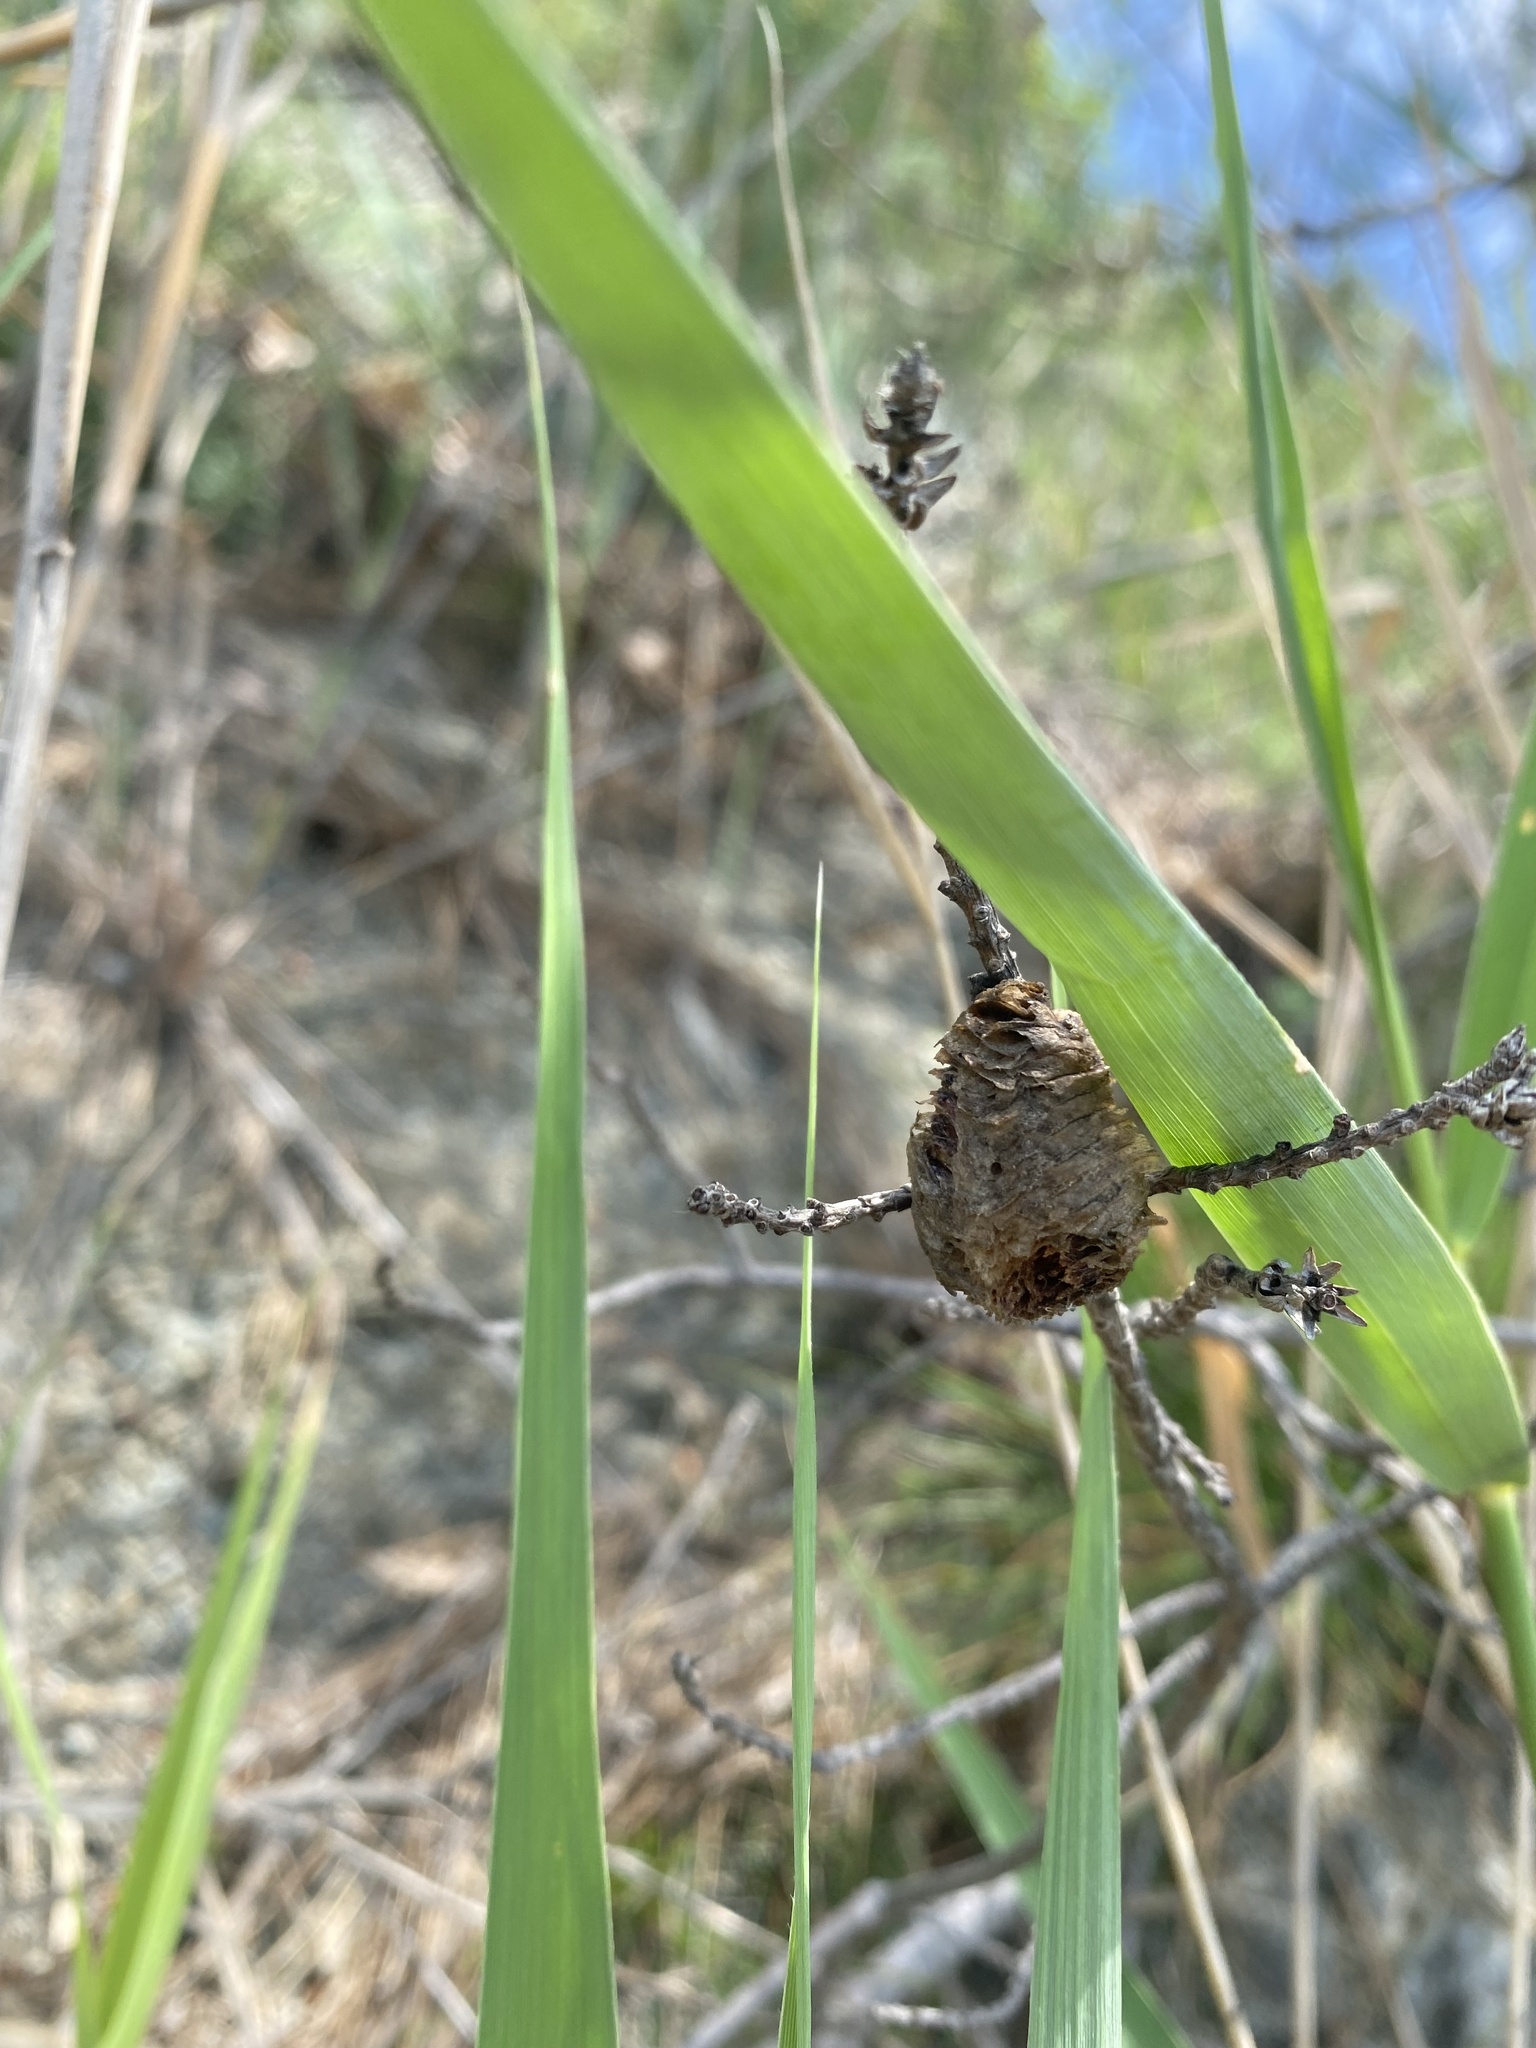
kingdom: Animalia
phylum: Arthropoda
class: Insecta
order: Mantodea
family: Mantidae
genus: Hierodula
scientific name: Hierodula transcaucasica
